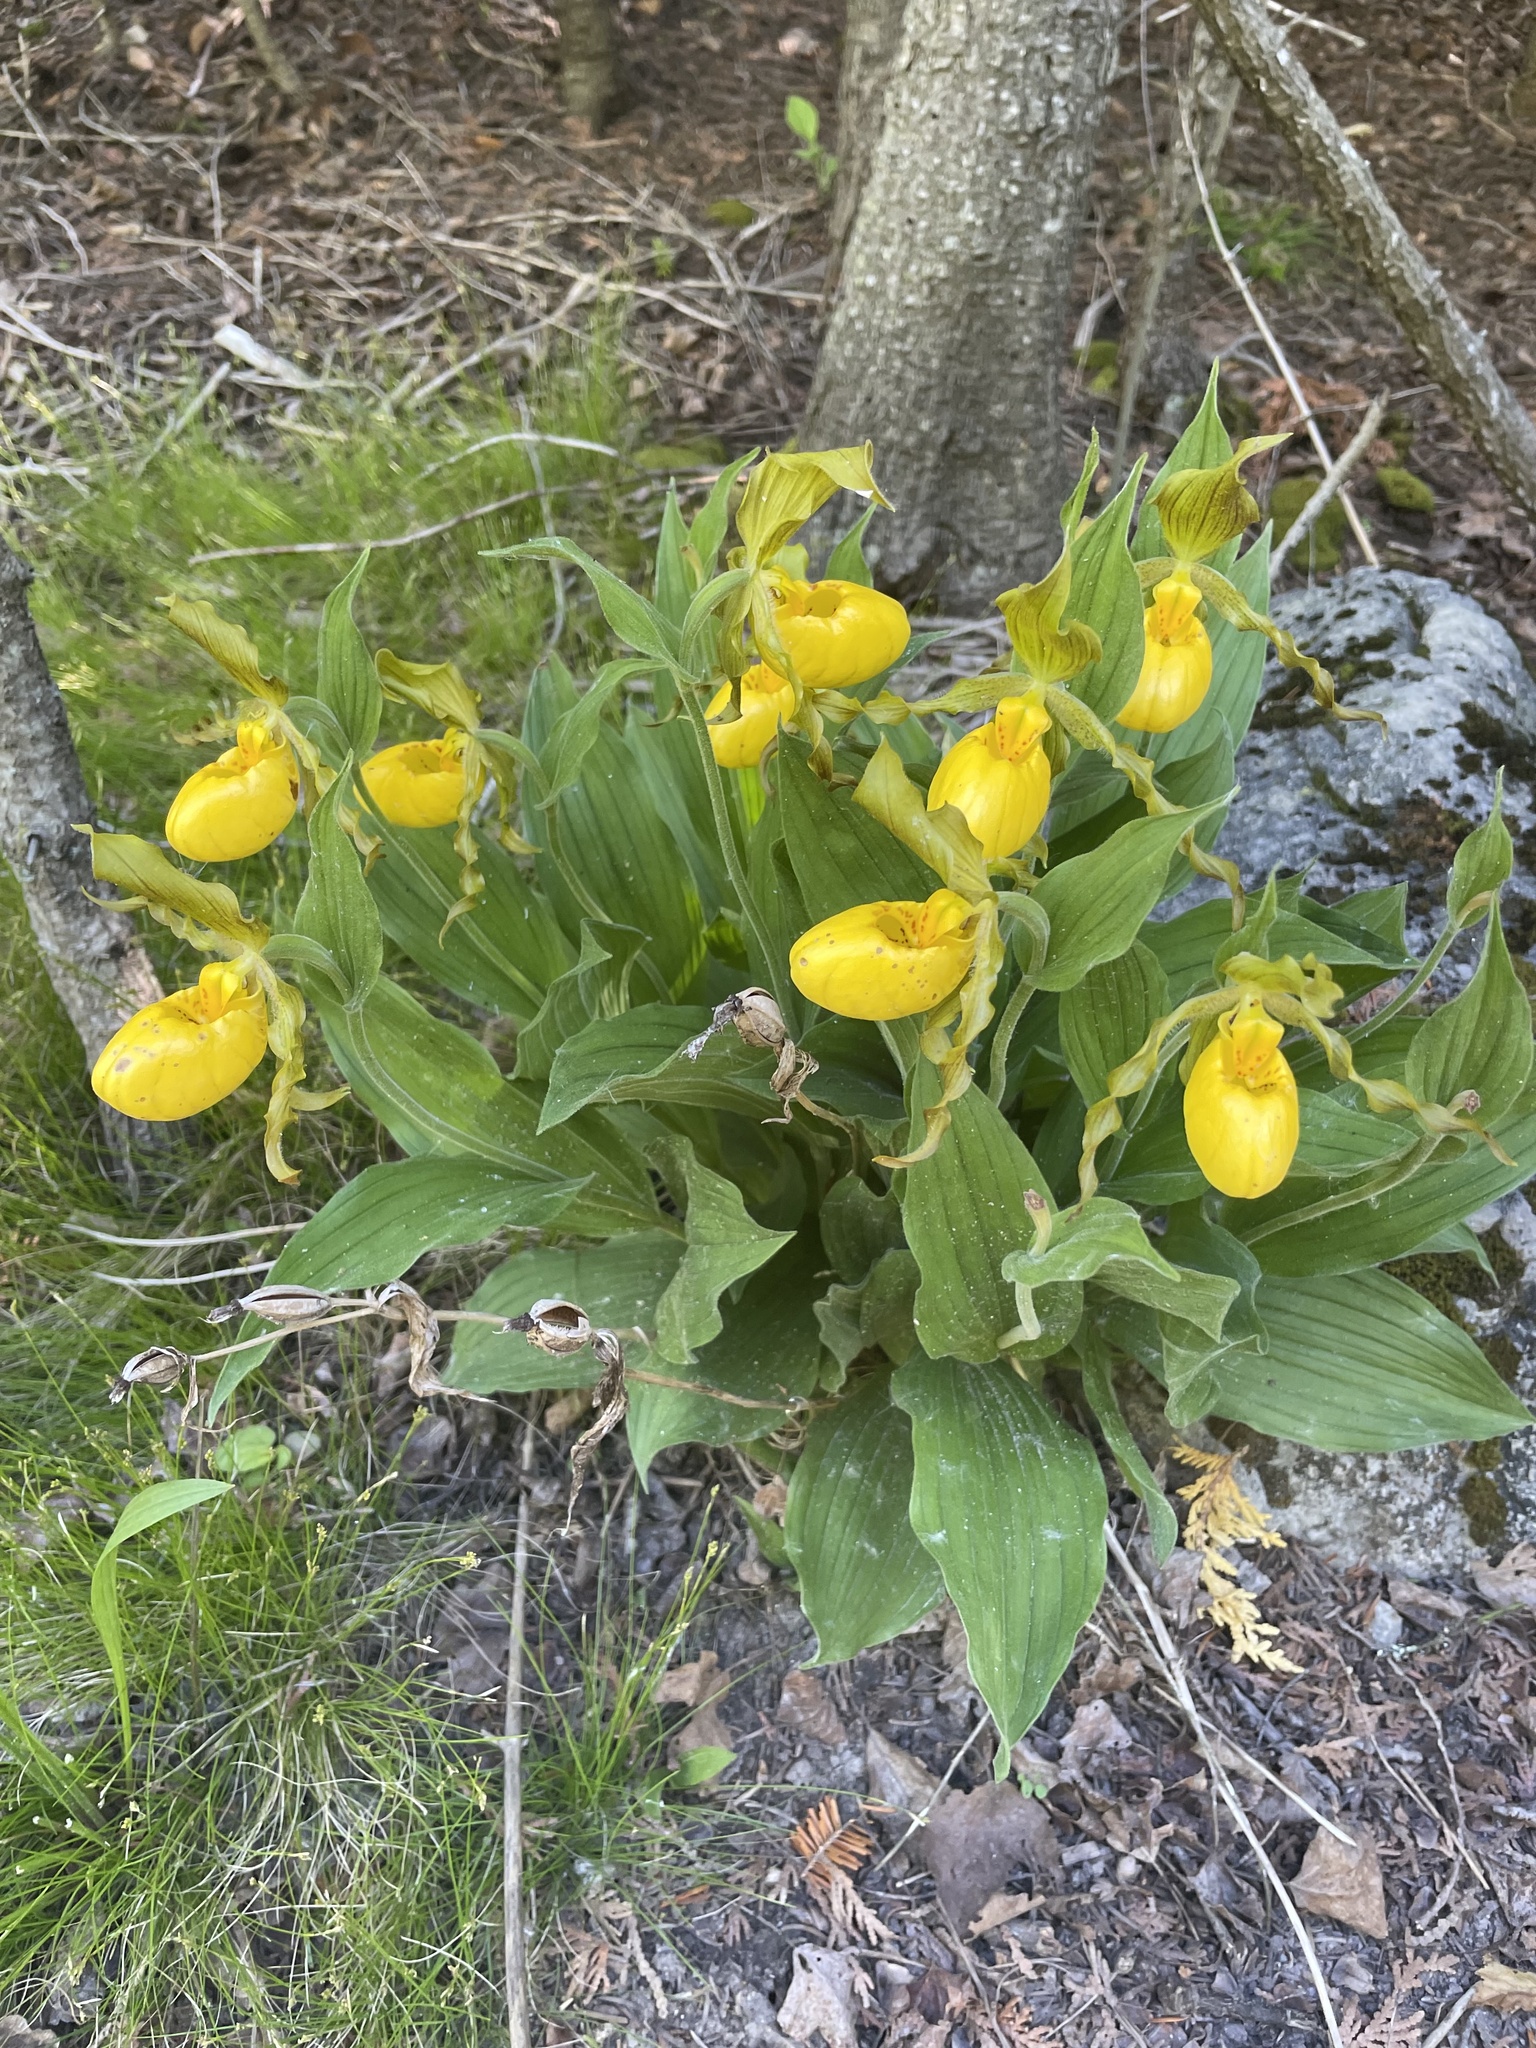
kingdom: Plantae
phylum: Tracheophyta
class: Liliopsida
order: Asparagales
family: Orchidaceae
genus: Cypripedium
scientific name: Cypripedium parviflorum
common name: American yellow lady's-slipper
